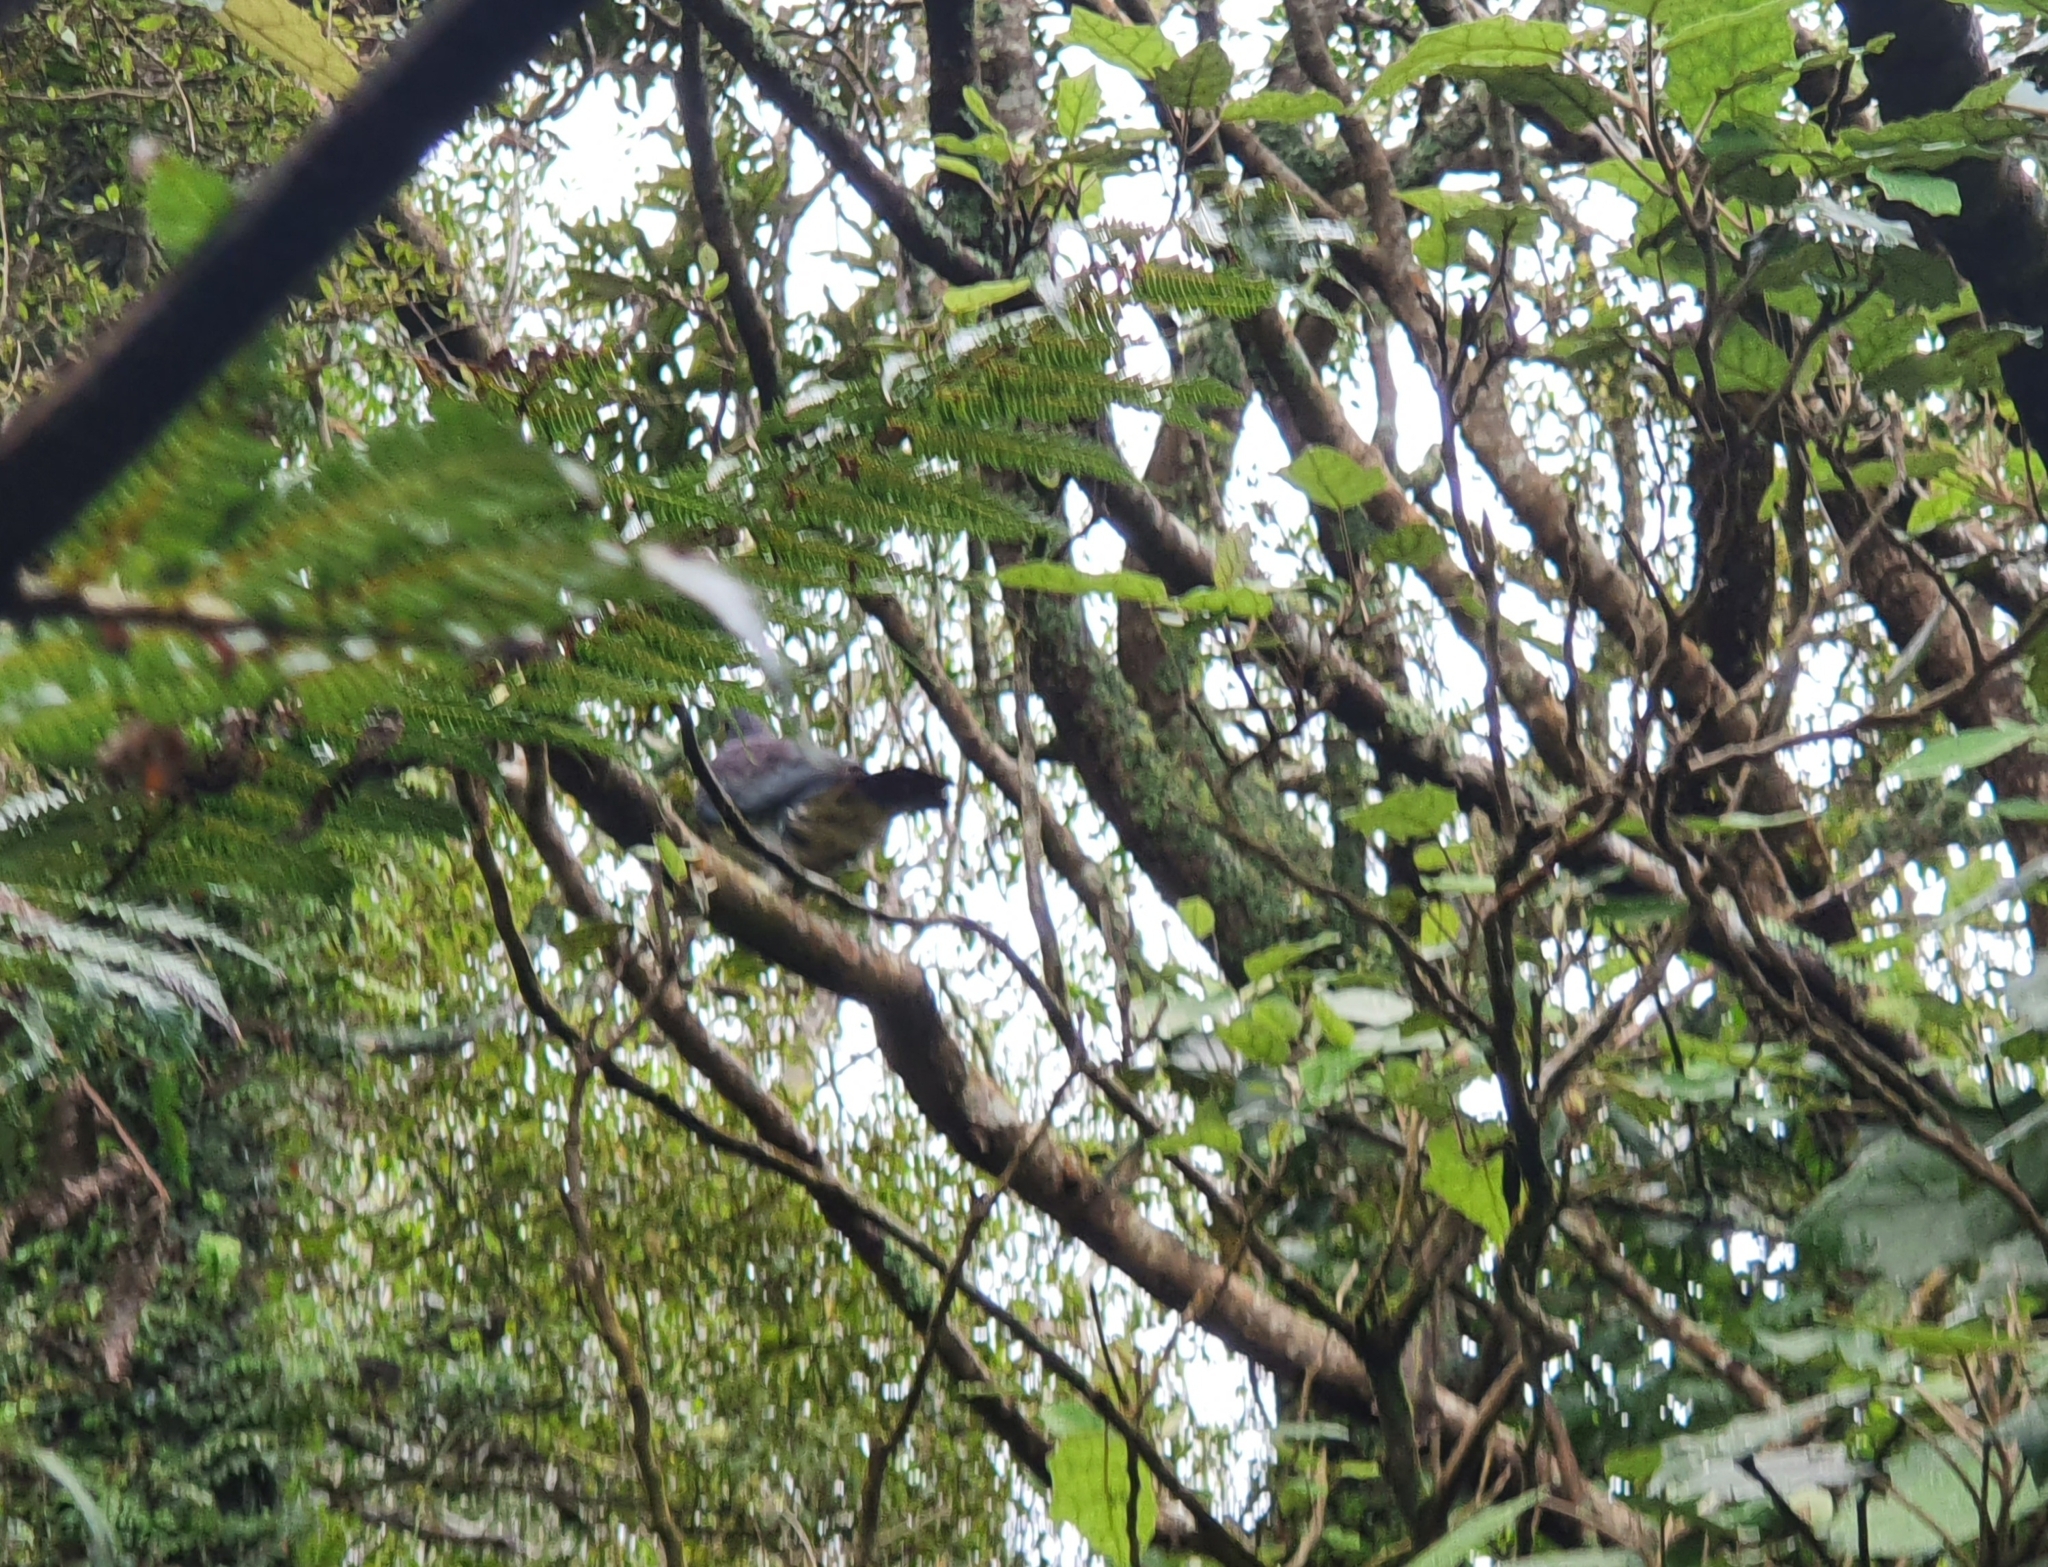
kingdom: Animalia
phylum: Chordata
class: Aves
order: Columbiformes
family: Columbidae
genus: Hemiphaga
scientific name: Hemiphaga novaeseelandiae
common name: New zealand pigeon
